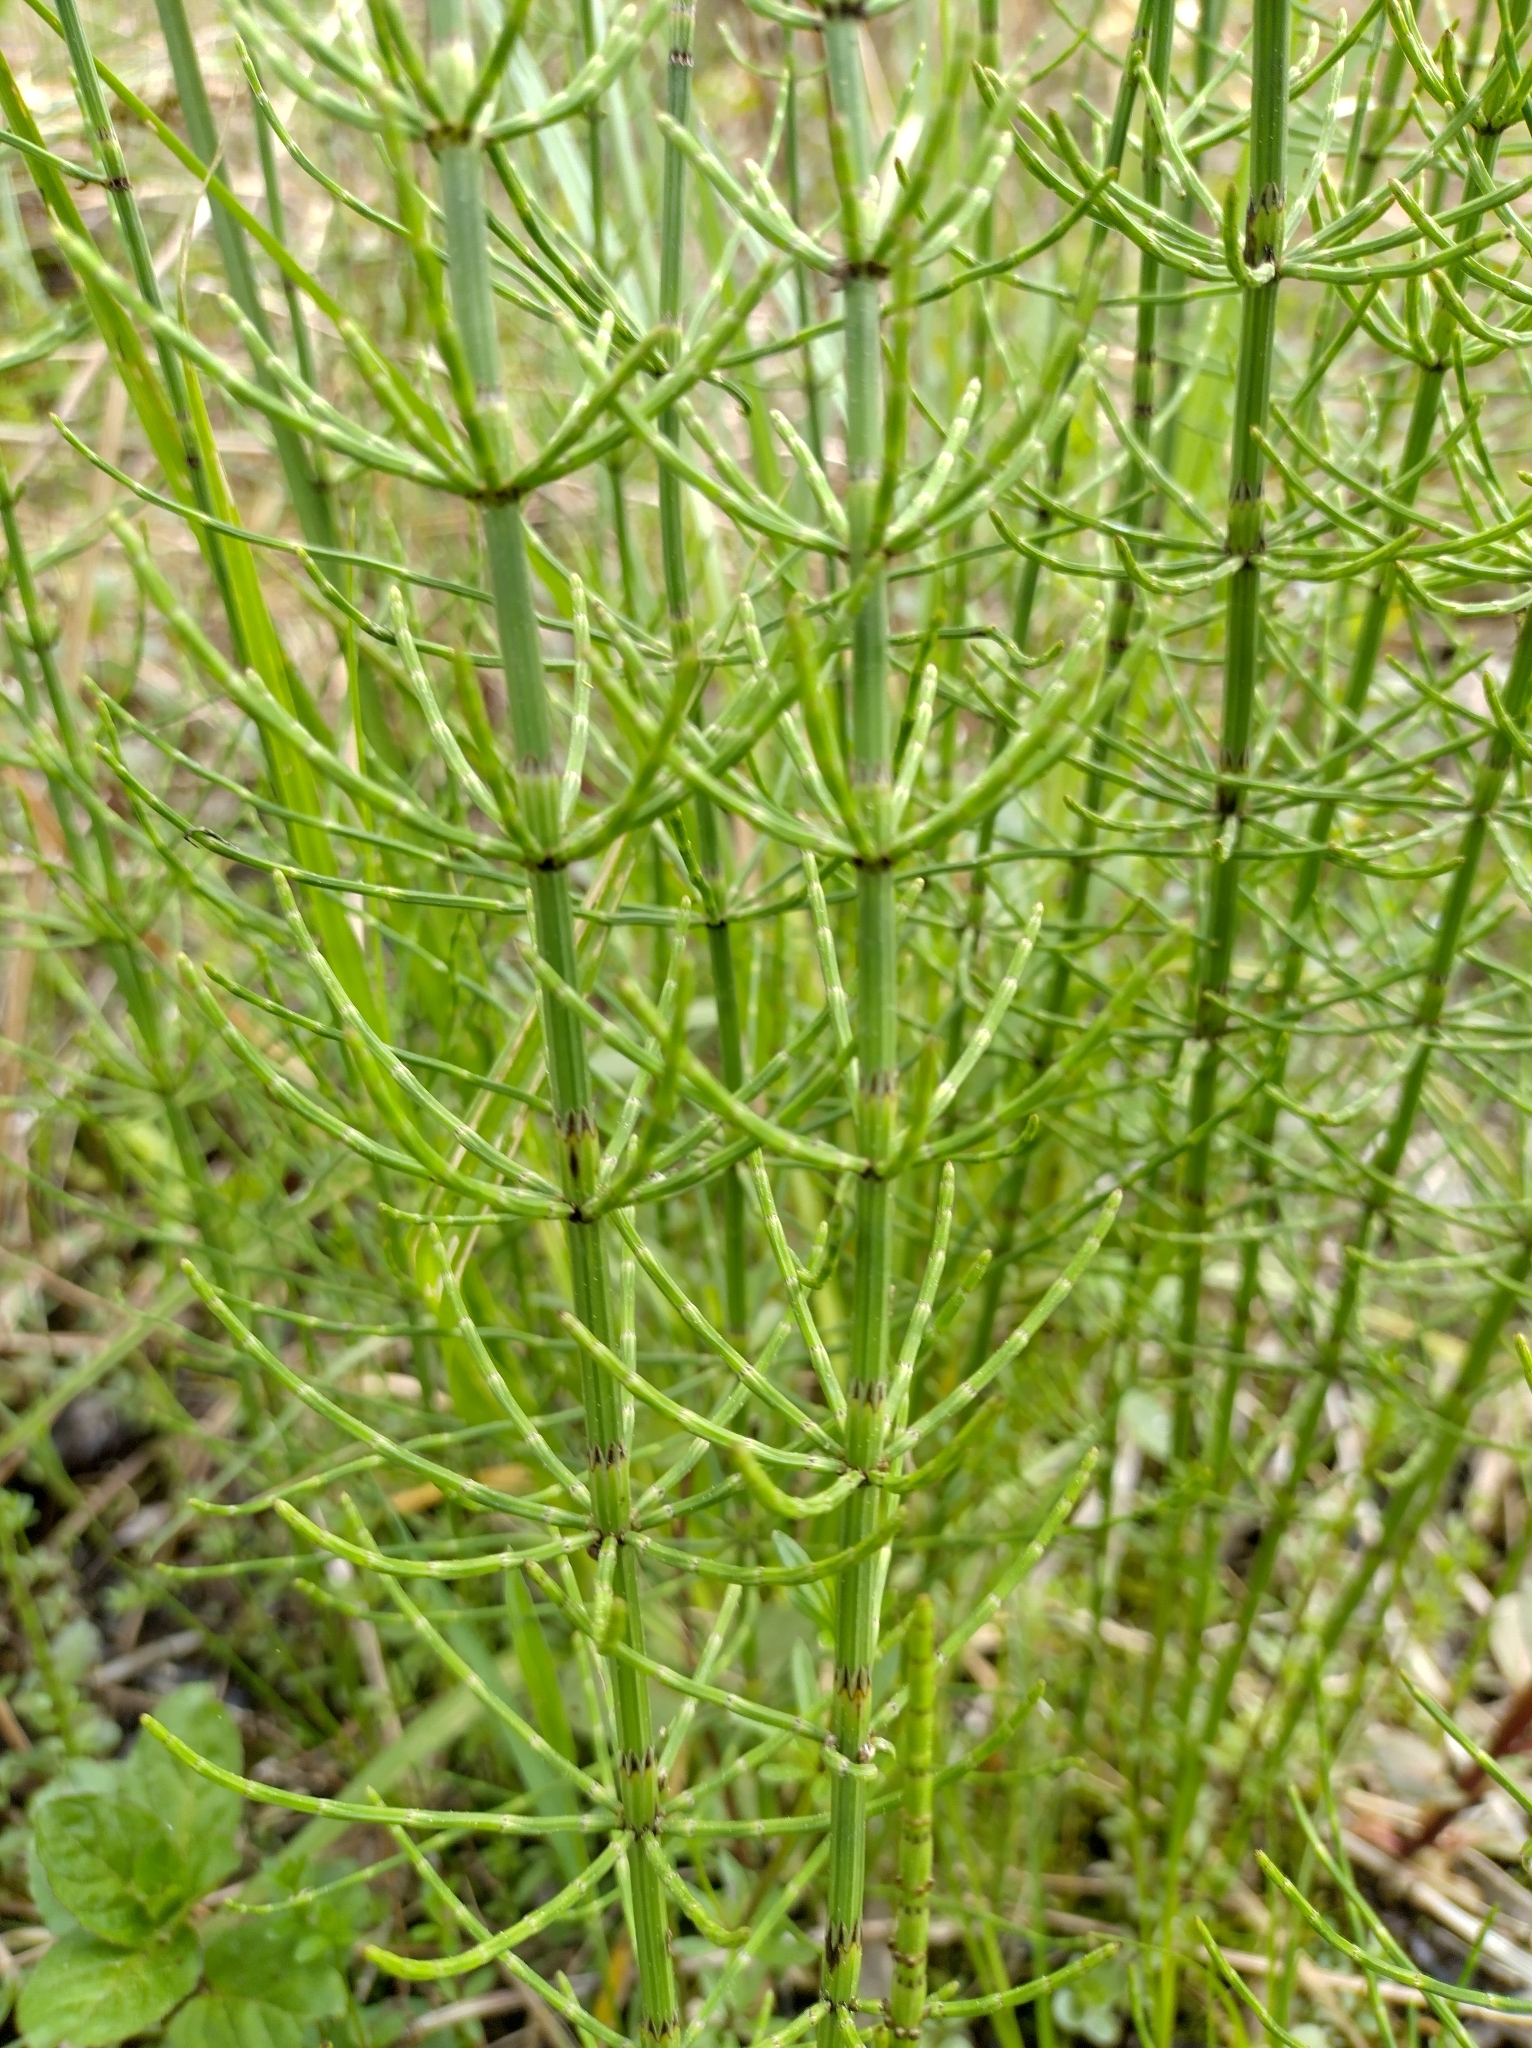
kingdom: Plantae
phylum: Tracheophyta
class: Polypodiopsida
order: Equisetales
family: Equisetaceae
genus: Equisetum
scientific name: Equisetum palustre
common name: Marsh horsetail
